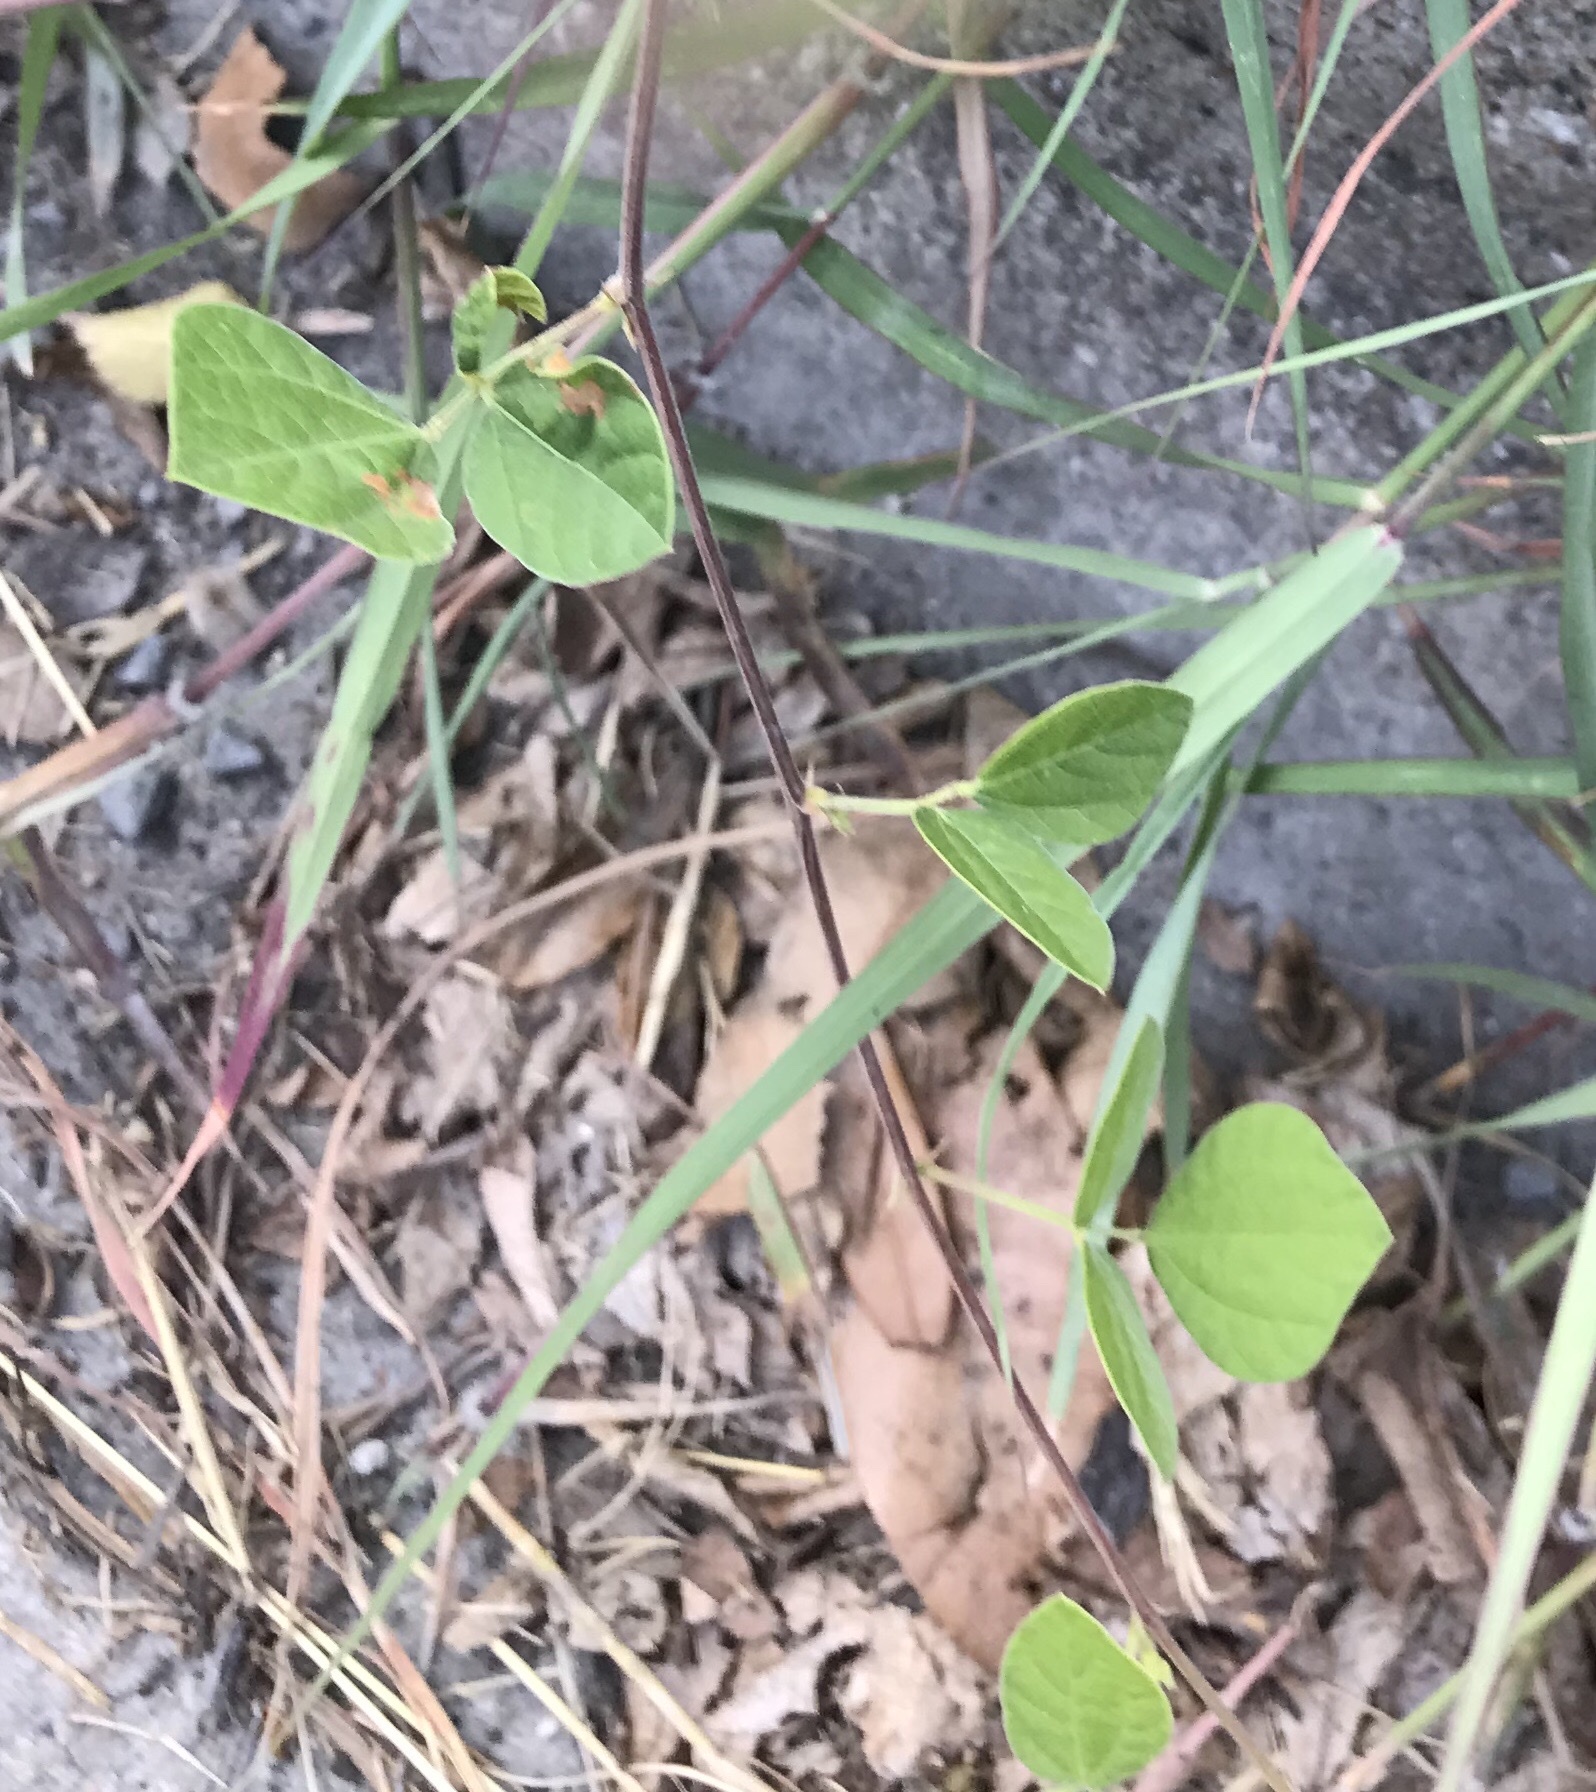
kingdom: Plantae
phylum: Tracheophyta
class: Magnoliopsida
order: Fabales
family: Fabaceae
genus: Rhynchosia
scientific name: Rhynchosia minima
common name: Least snoutbean
